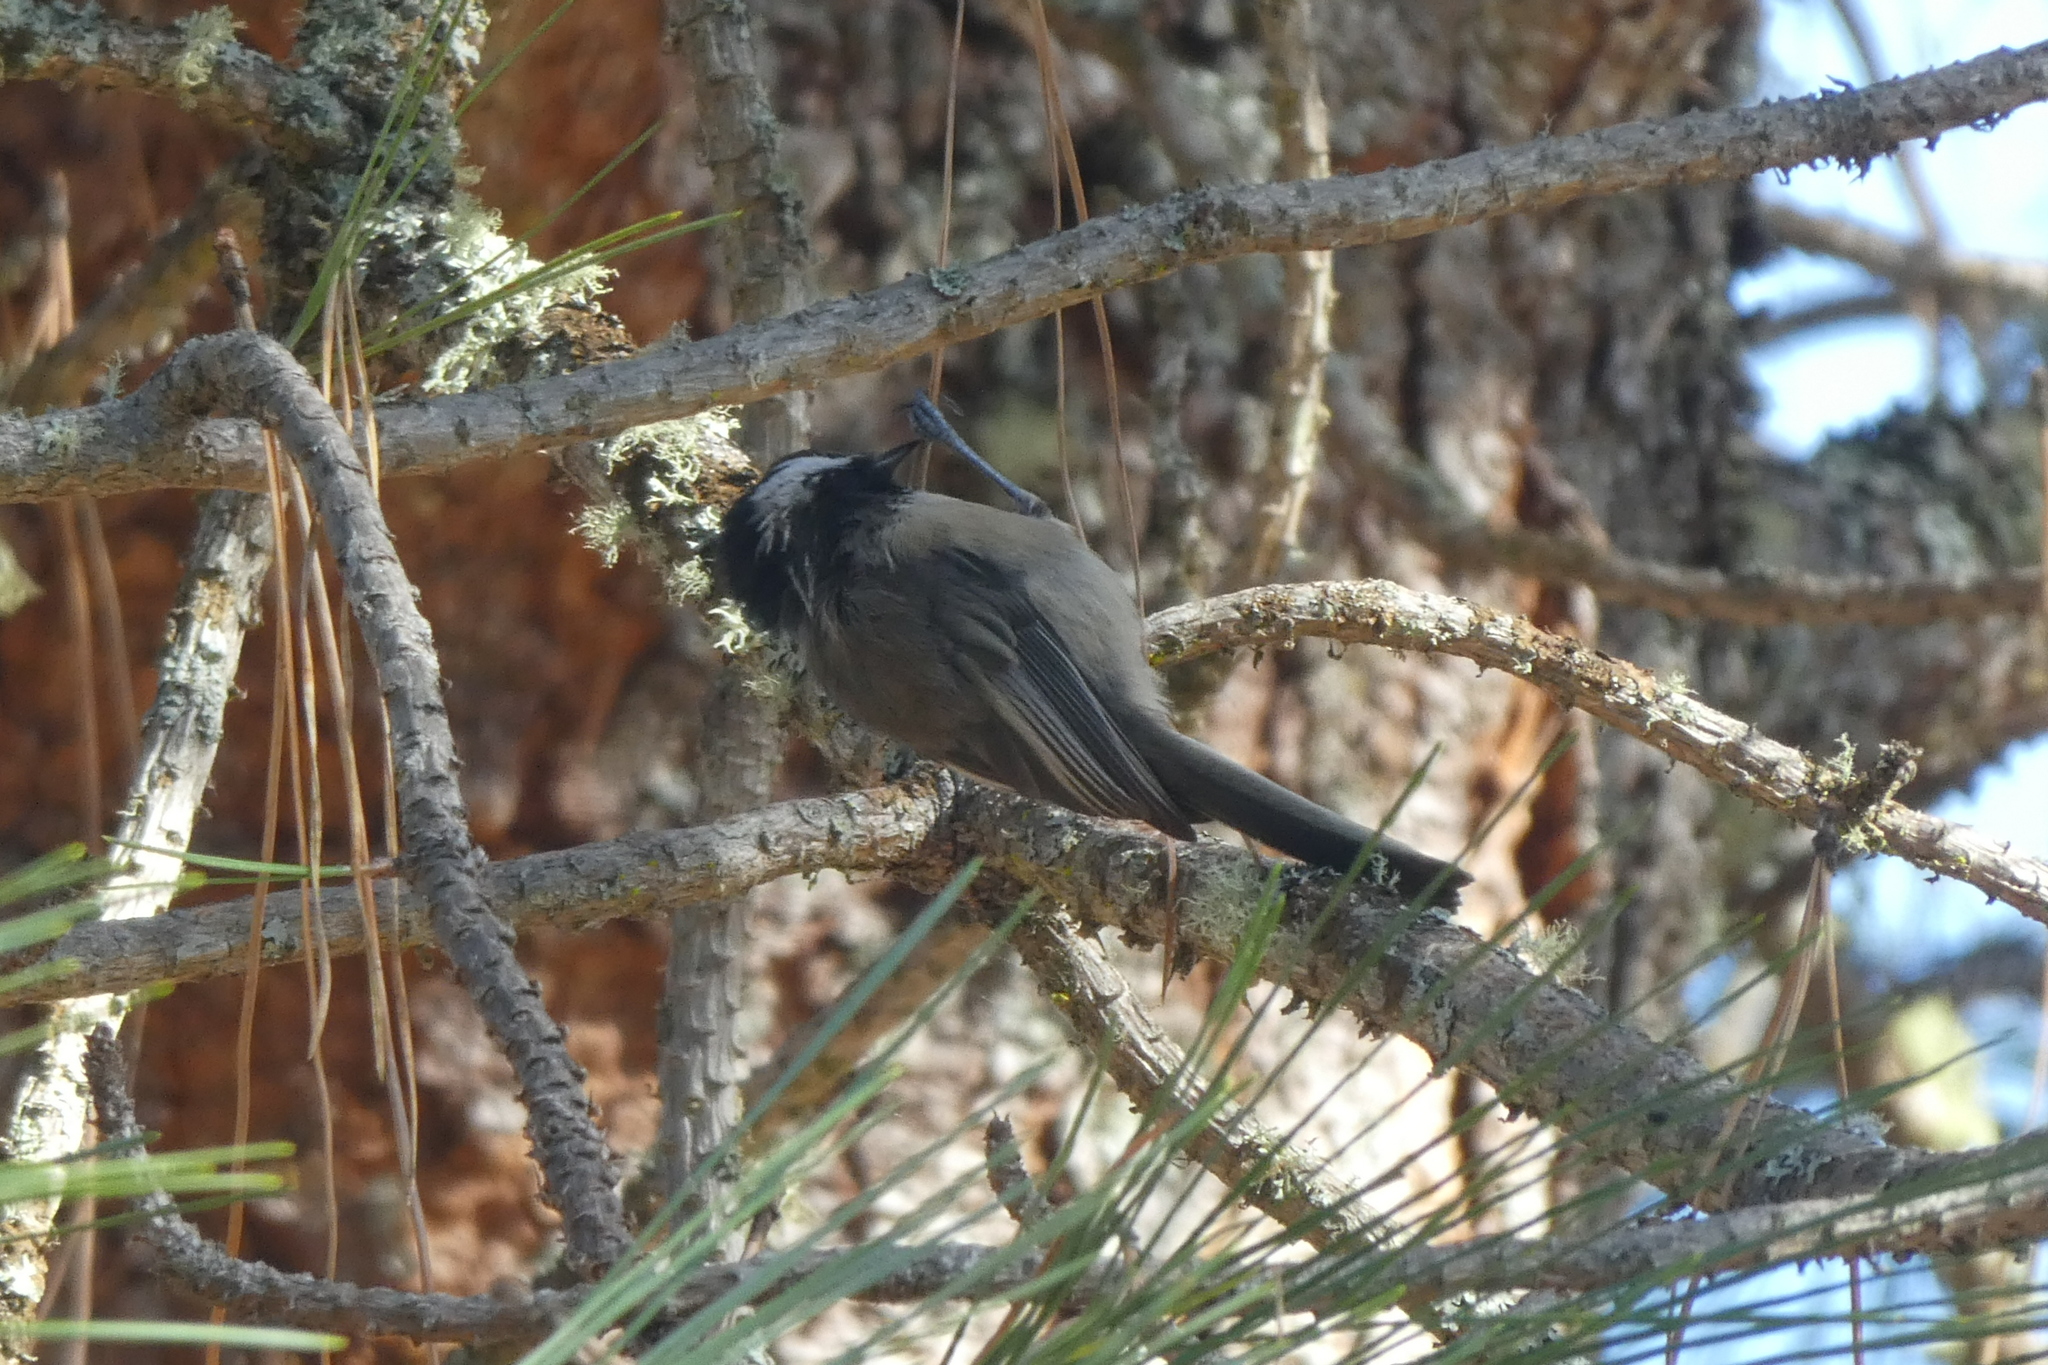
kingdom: Animalia
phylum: Chordata
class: Aves
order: Passeriformes
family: Paridae
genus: Poecile
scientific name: Poecile atricapillus
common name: Black-capped chickadee
